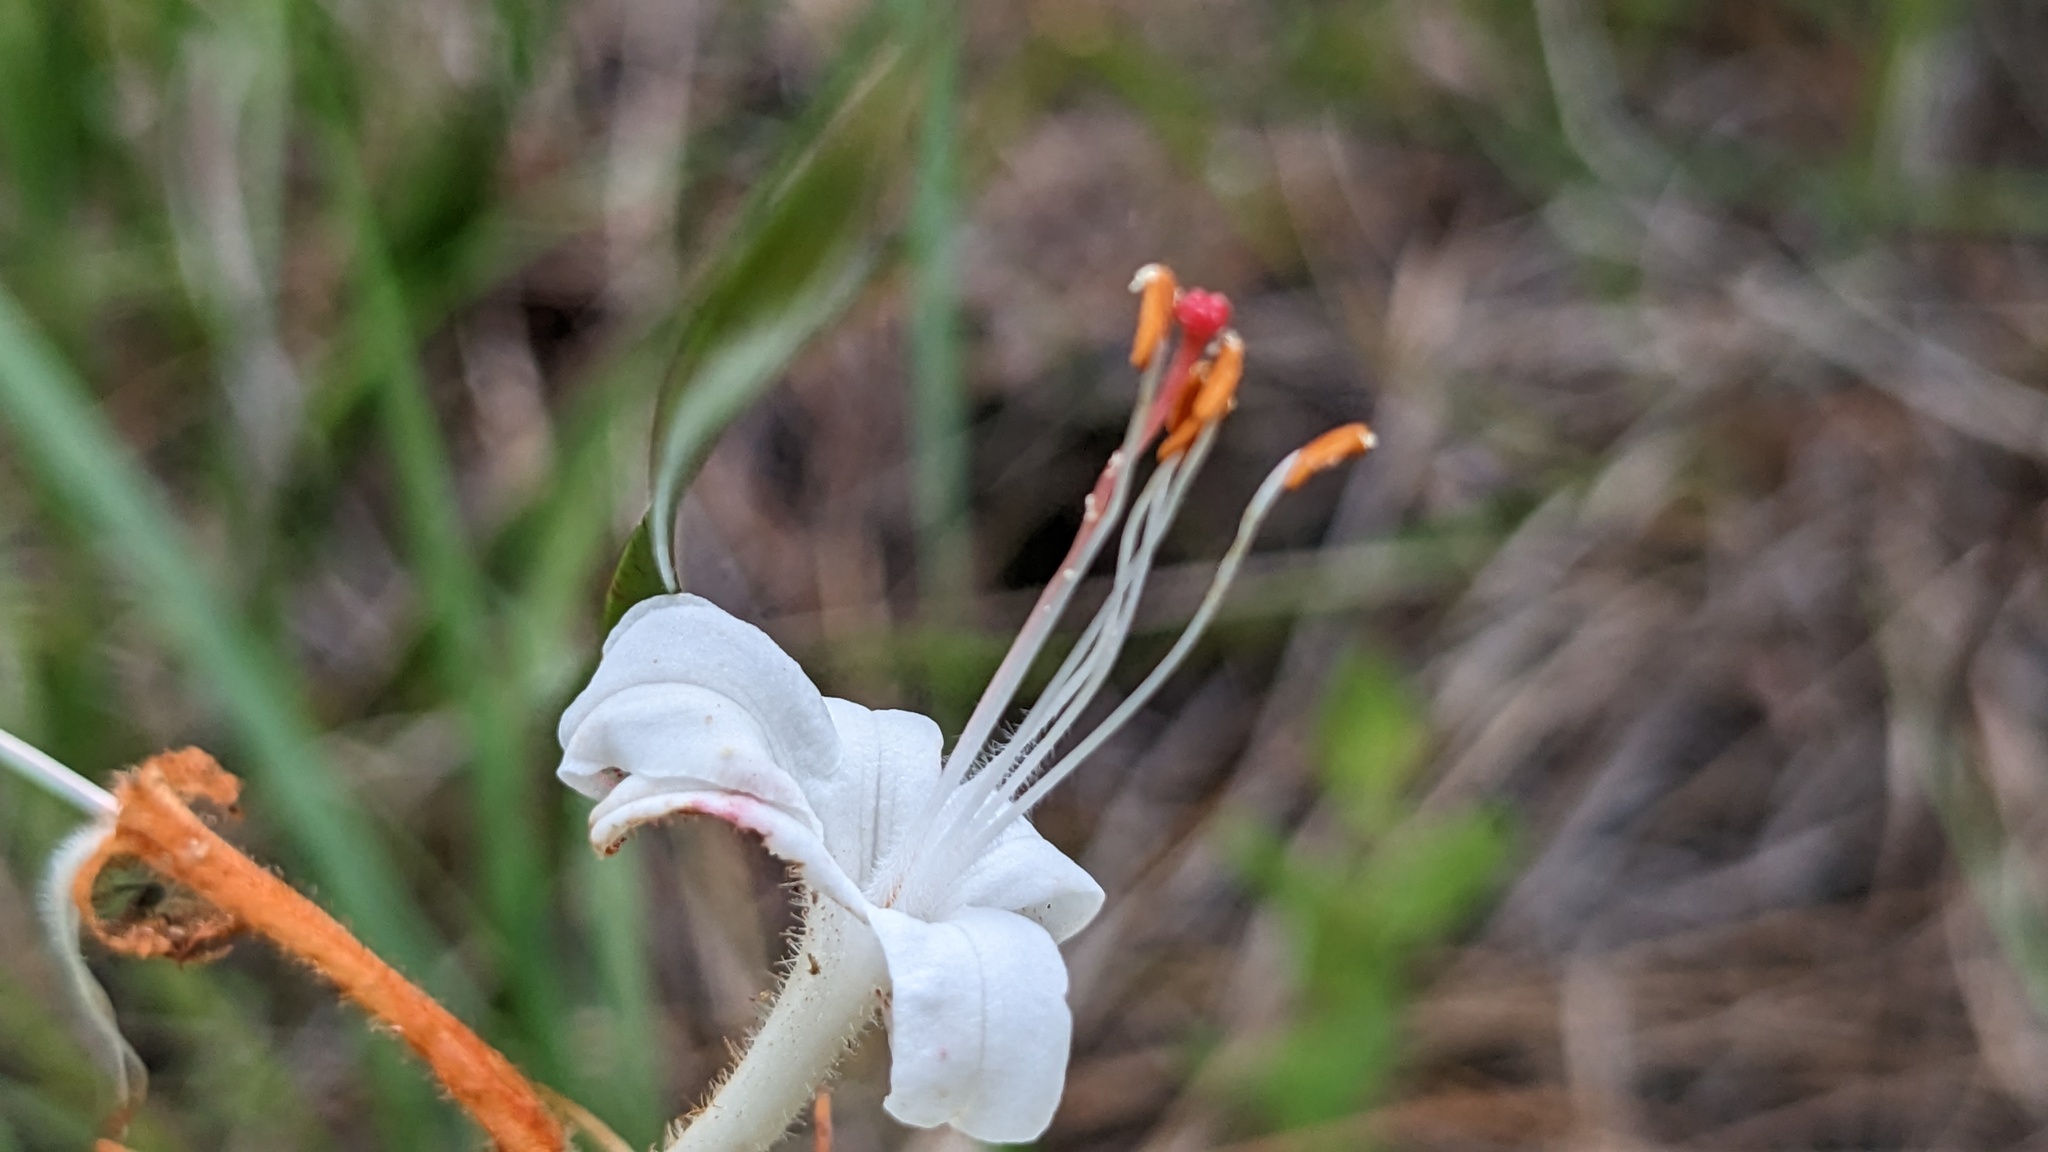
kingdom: Plantae
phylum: Tracheophyta
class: Magnoliopsida
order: Ericales
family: Ericaceae
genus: Rhododendron
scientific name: Rhododendron viscosum
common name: Clammy azalea
